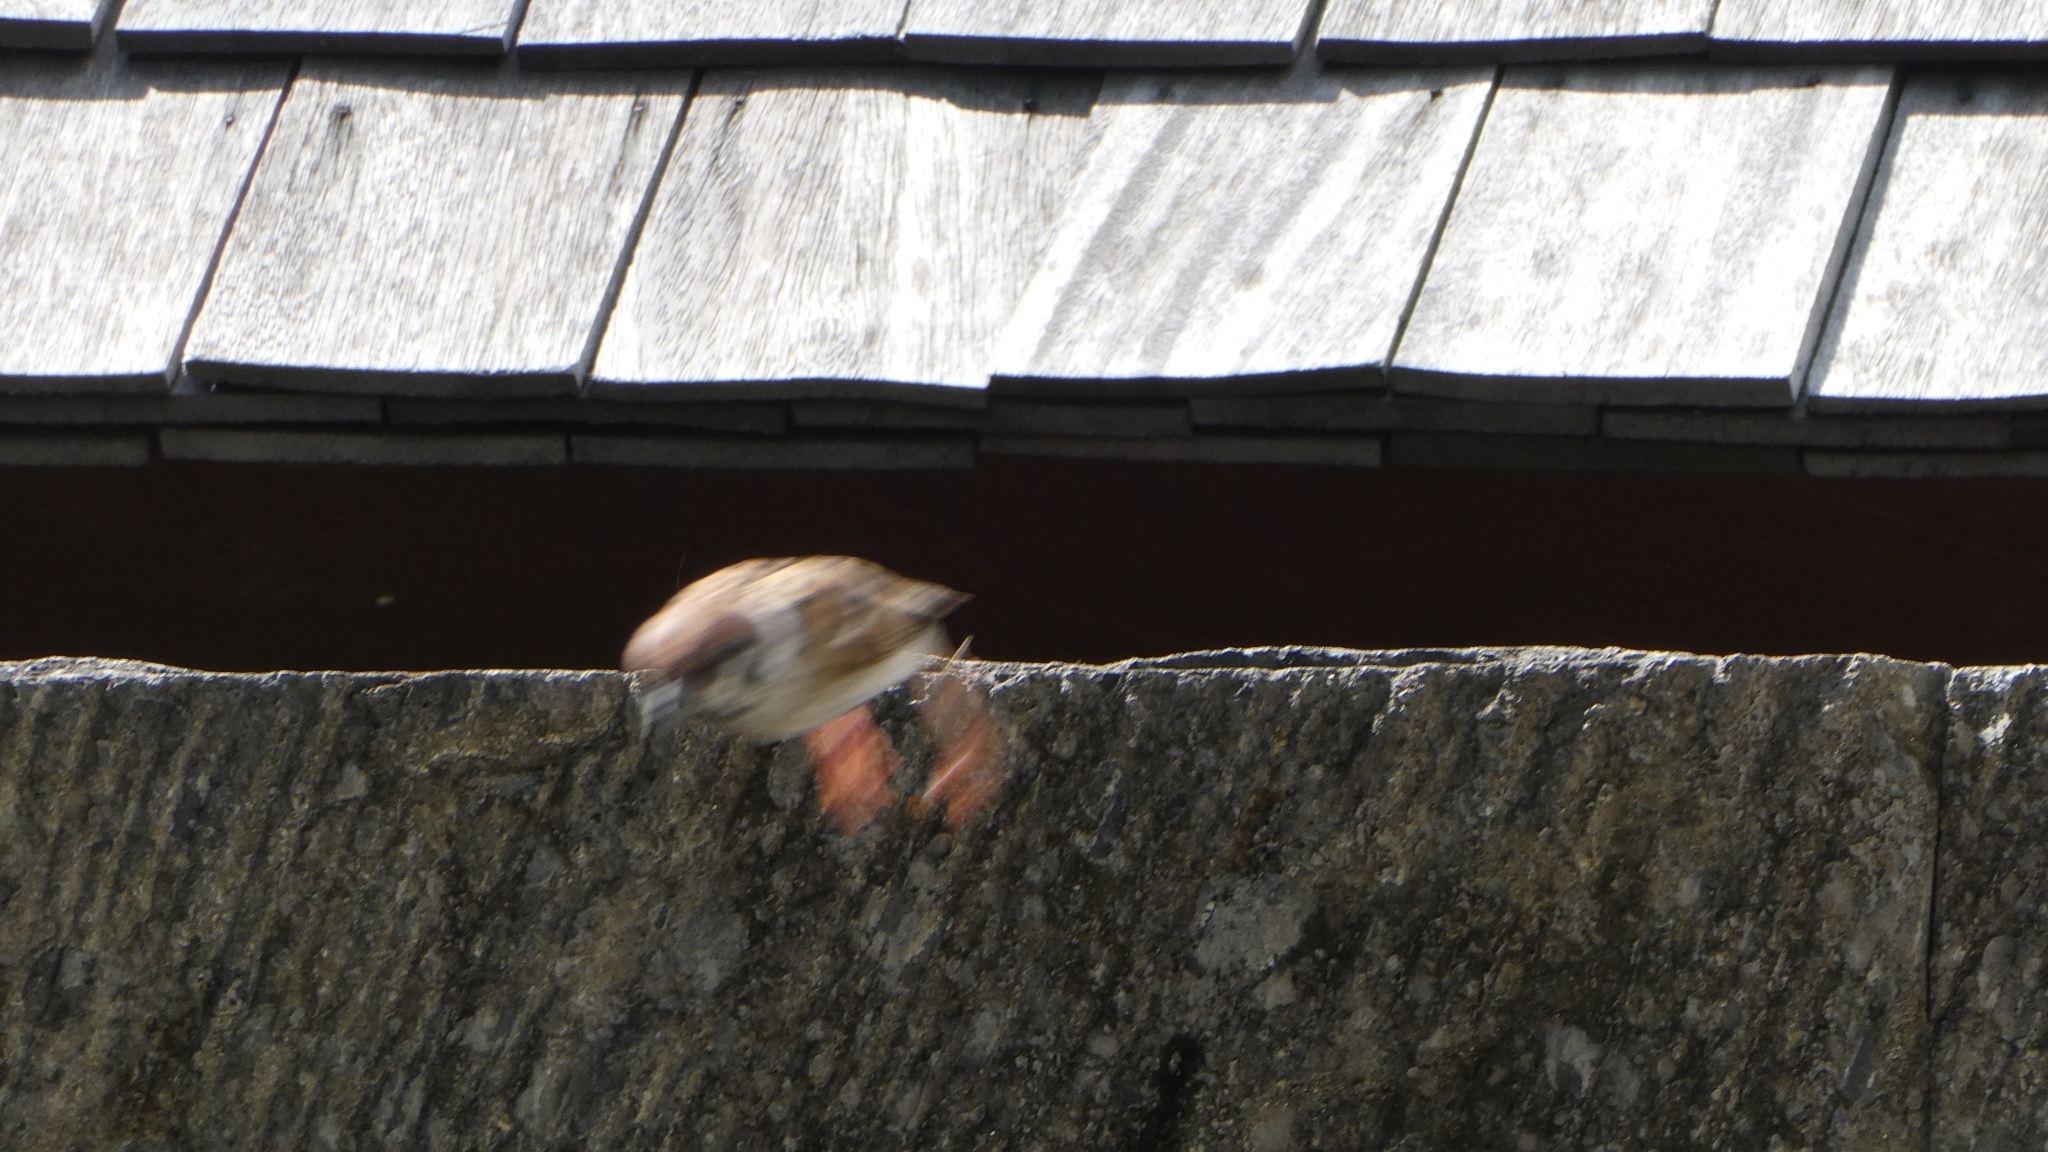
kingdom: Animalia
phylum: Chordata
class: Aves
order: Passeriformes
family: Passeridae
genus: Passer
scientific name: Passer montanus
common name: Eurasian tree sparrow
